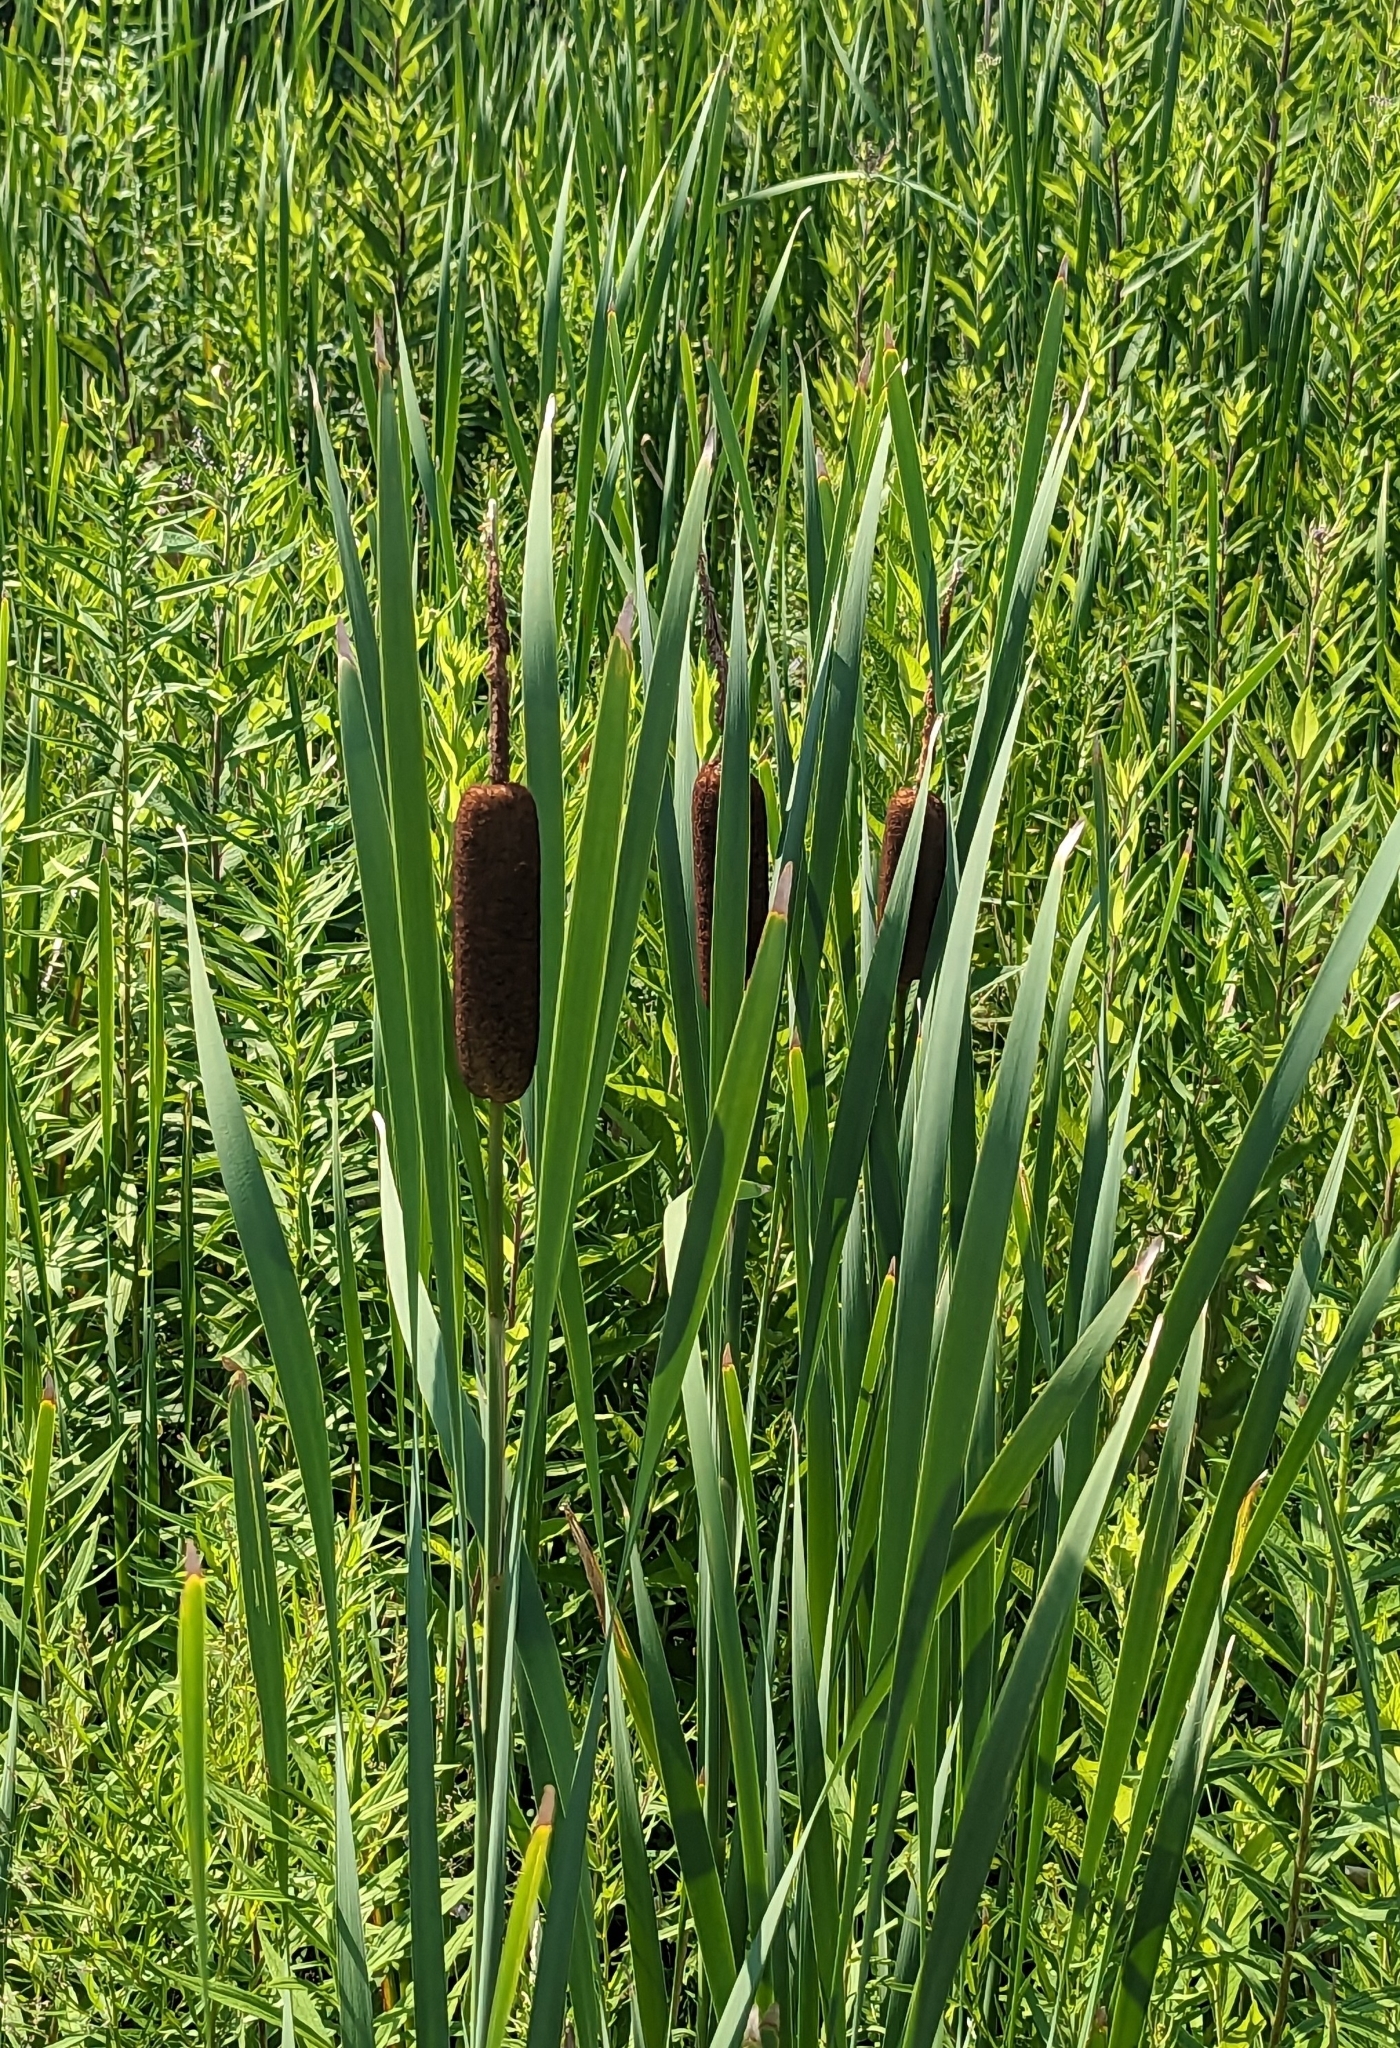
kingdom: Plantae
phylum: Tracheophyta
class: Liliopsida
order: Poales
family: Typhaceae
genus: Typha
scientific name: Typha latifolia
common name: Broadleaf cattail
